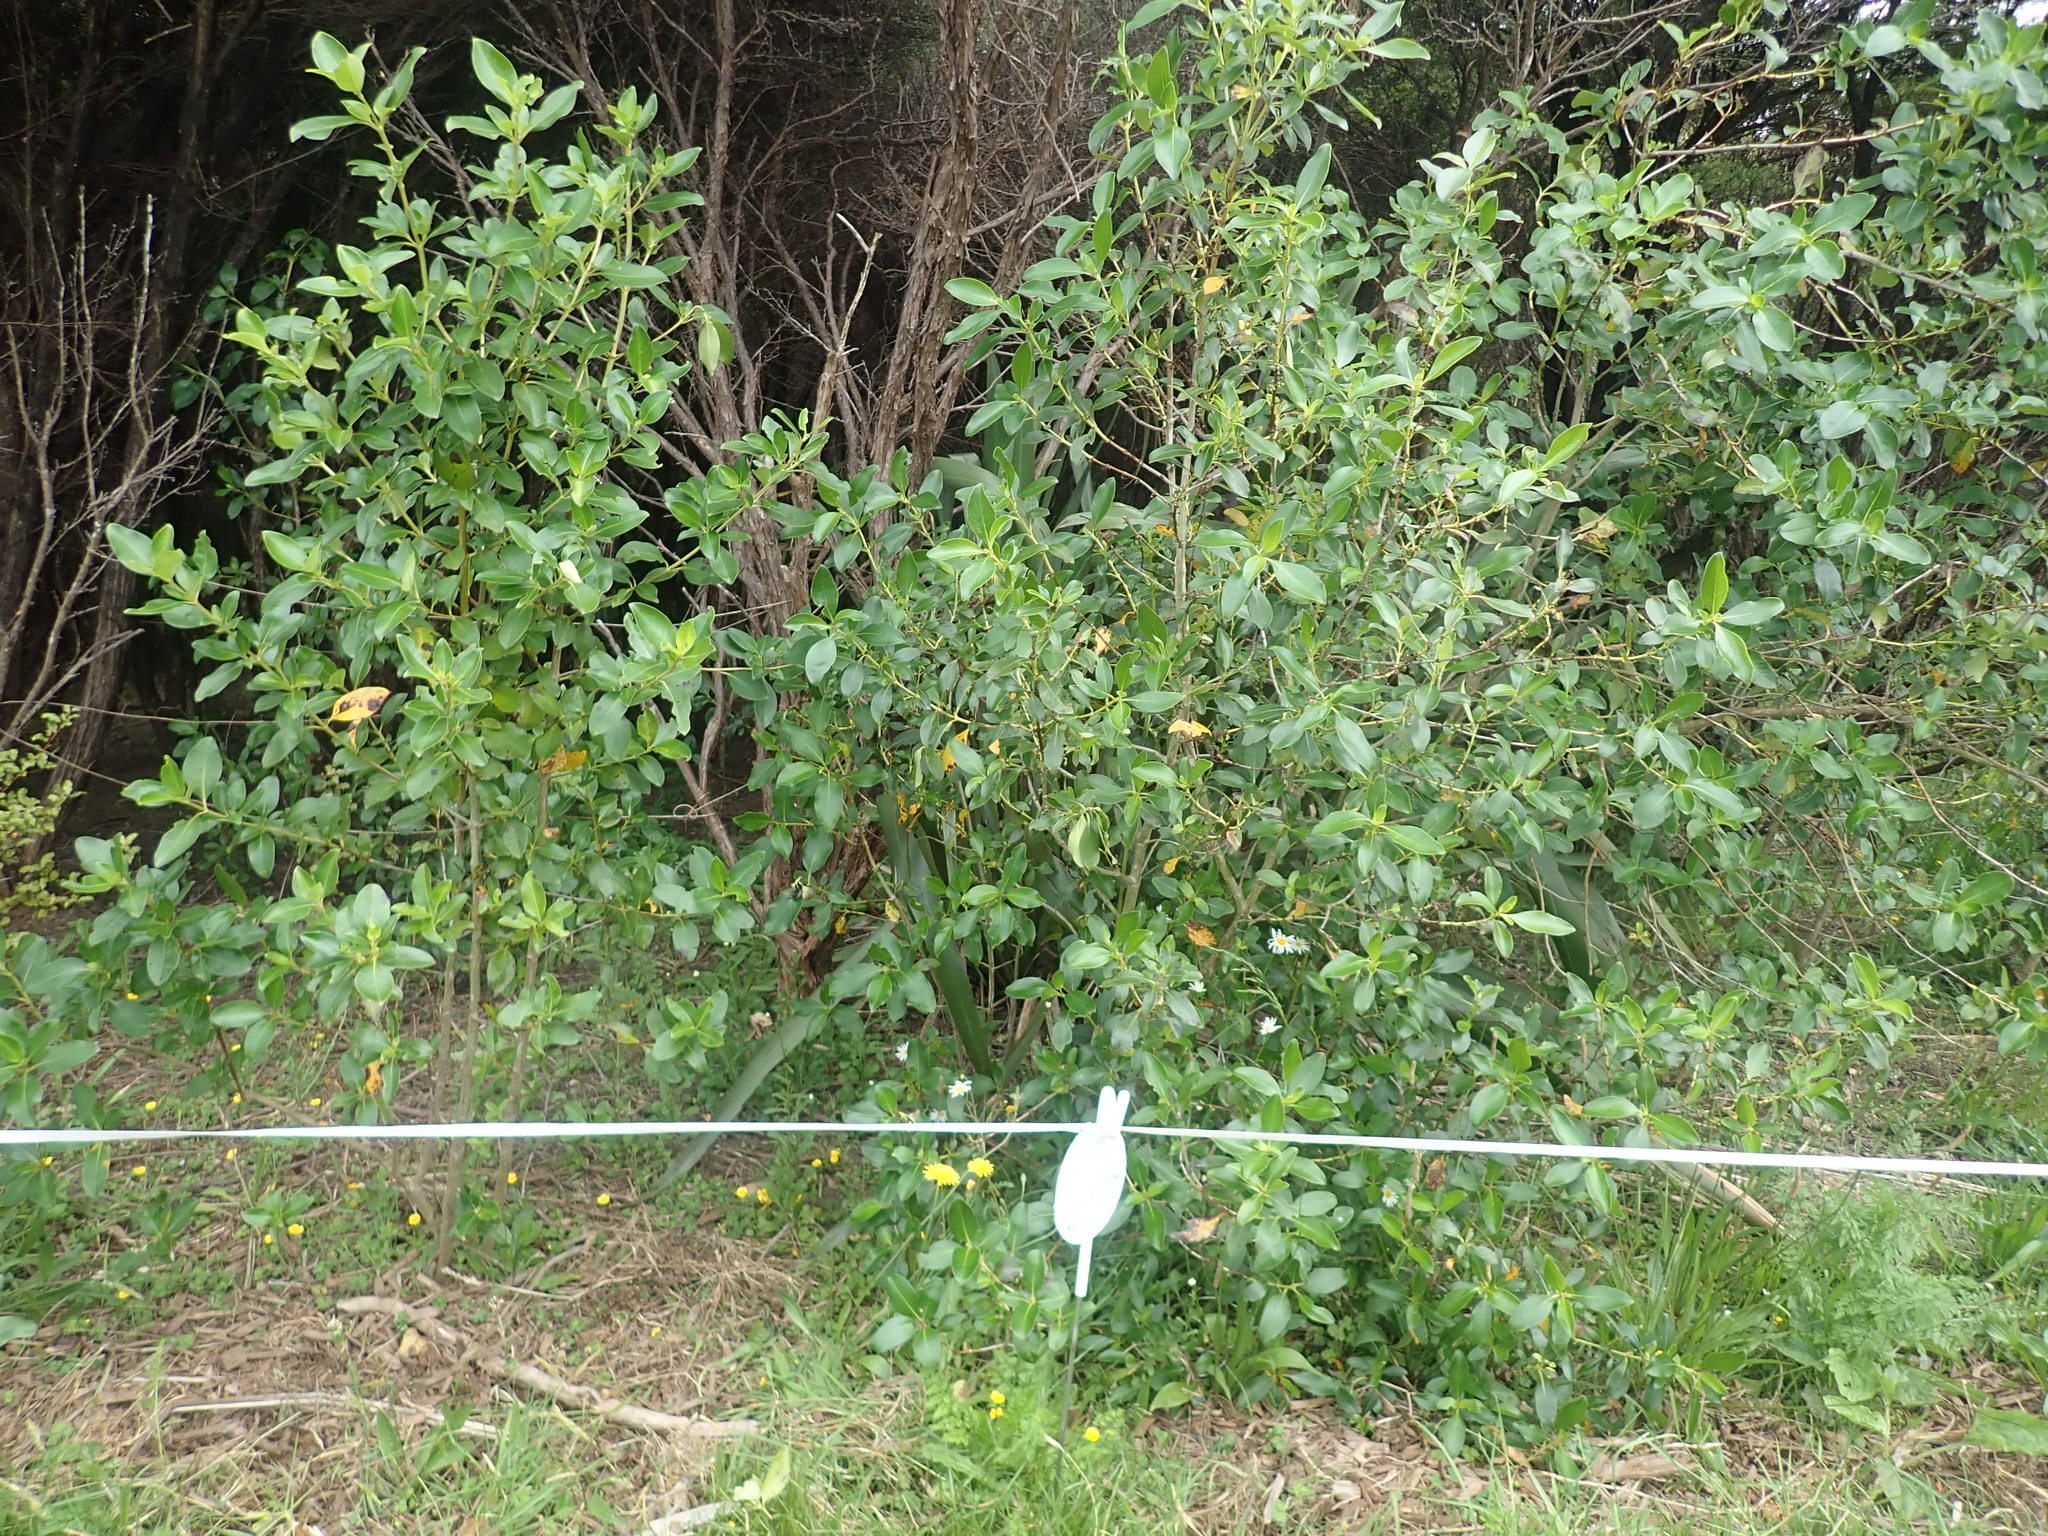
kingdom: Plantae
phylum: Tracheophyta
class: Magnoliopsida
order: Gentianales
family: Rubiaceae
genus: Coprosma
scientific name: Coprosma robusta
